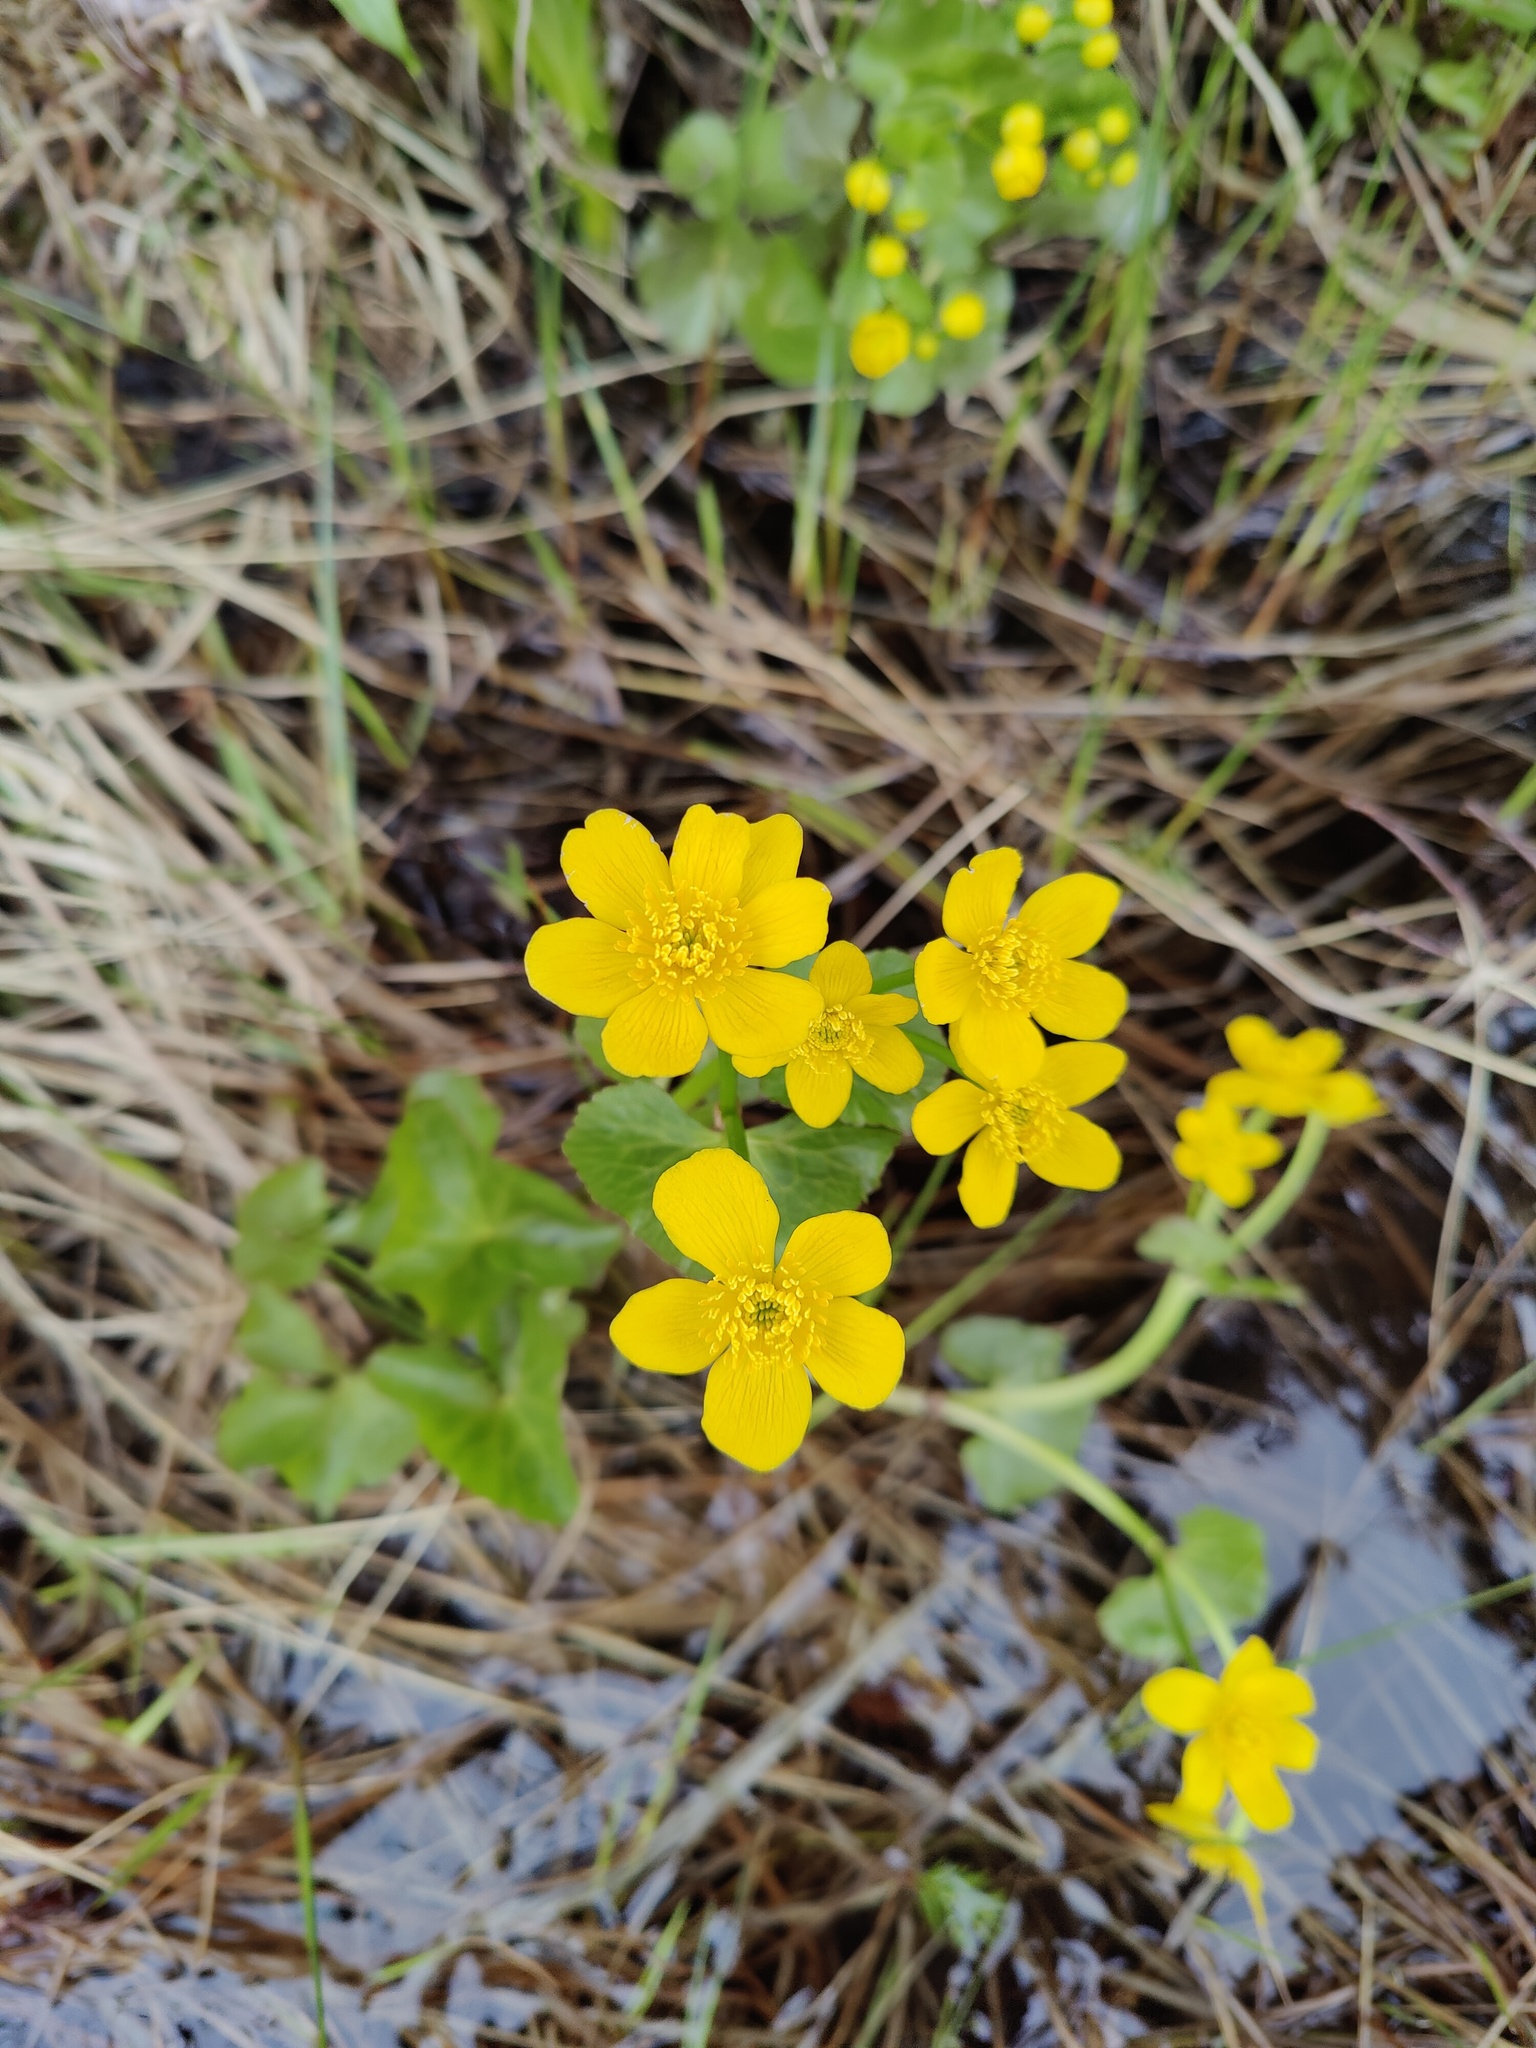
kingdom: Plantae
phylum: Tracheophyta
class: Magnoliopsida
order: Ranunculales
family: Ranunculaceae
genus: Caltha
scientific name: Caltha palustris
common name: Marsh marigold
